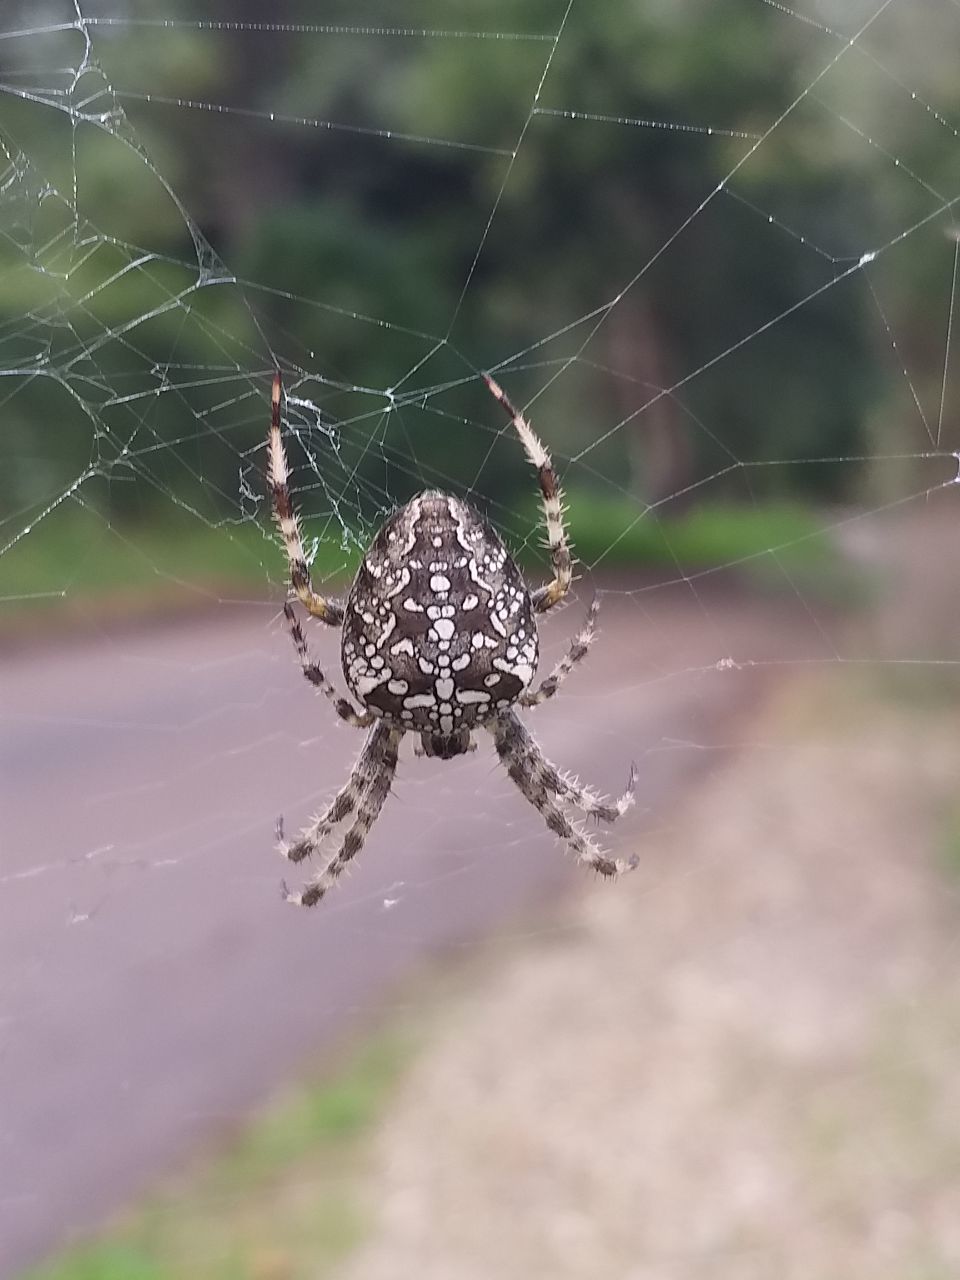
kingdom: Animalia
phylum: Arthropoda
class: Arachnida
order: Araneae
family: Araneidae
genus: Araneus
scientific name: Araneus diadematus
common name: Cross orbweaver
